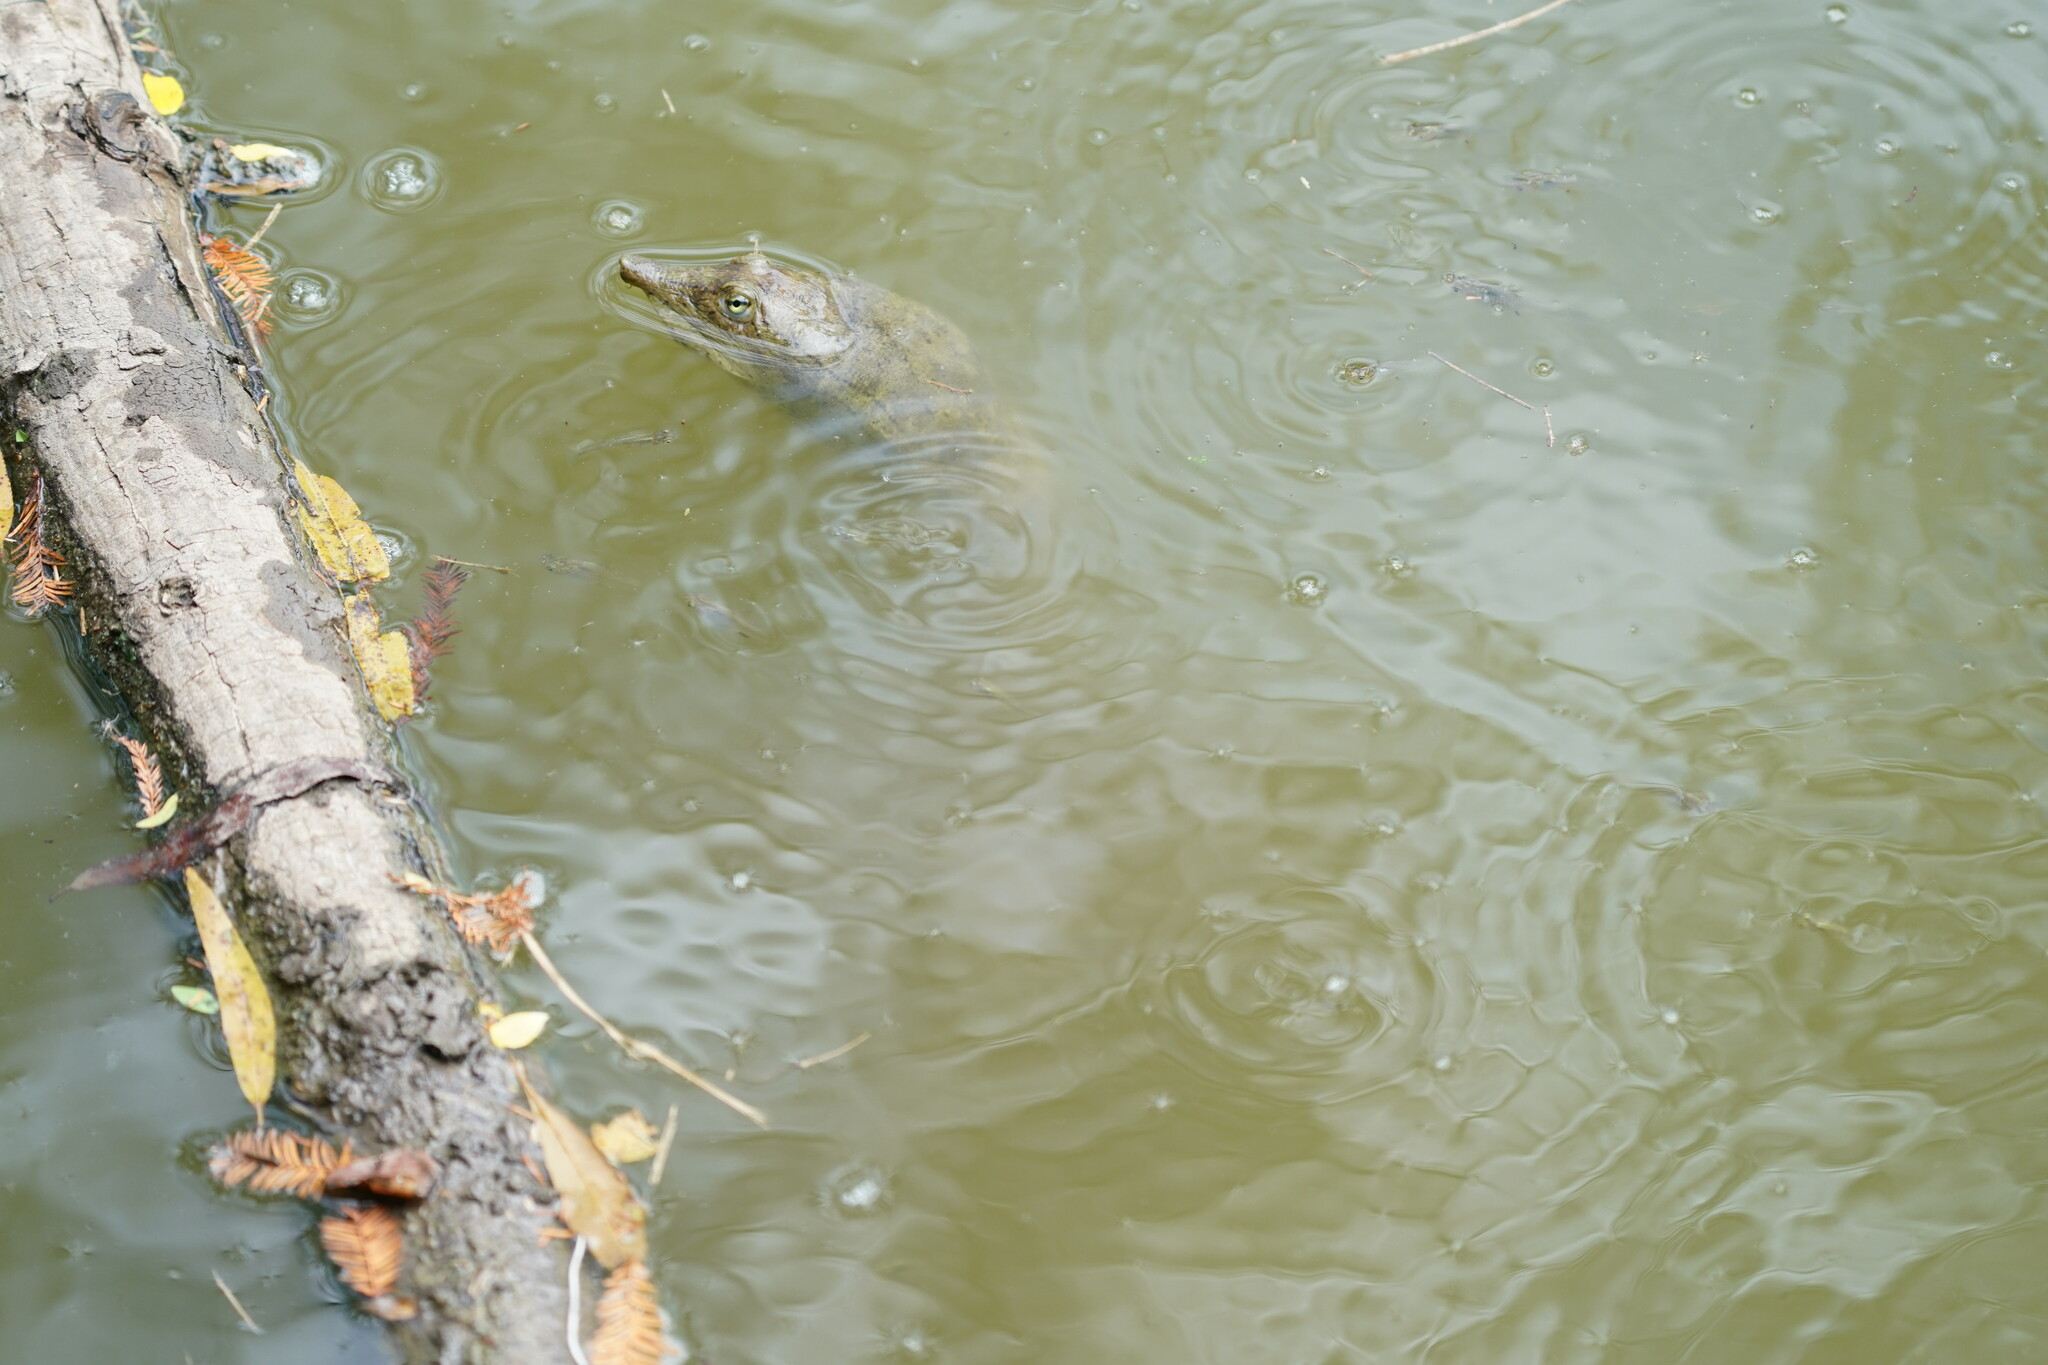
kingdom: Animalia
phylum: Chordata
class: Testudines
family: Trionychidae
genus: Apalone
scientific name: Apalone spinifera
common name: Spiny softshell turtle
